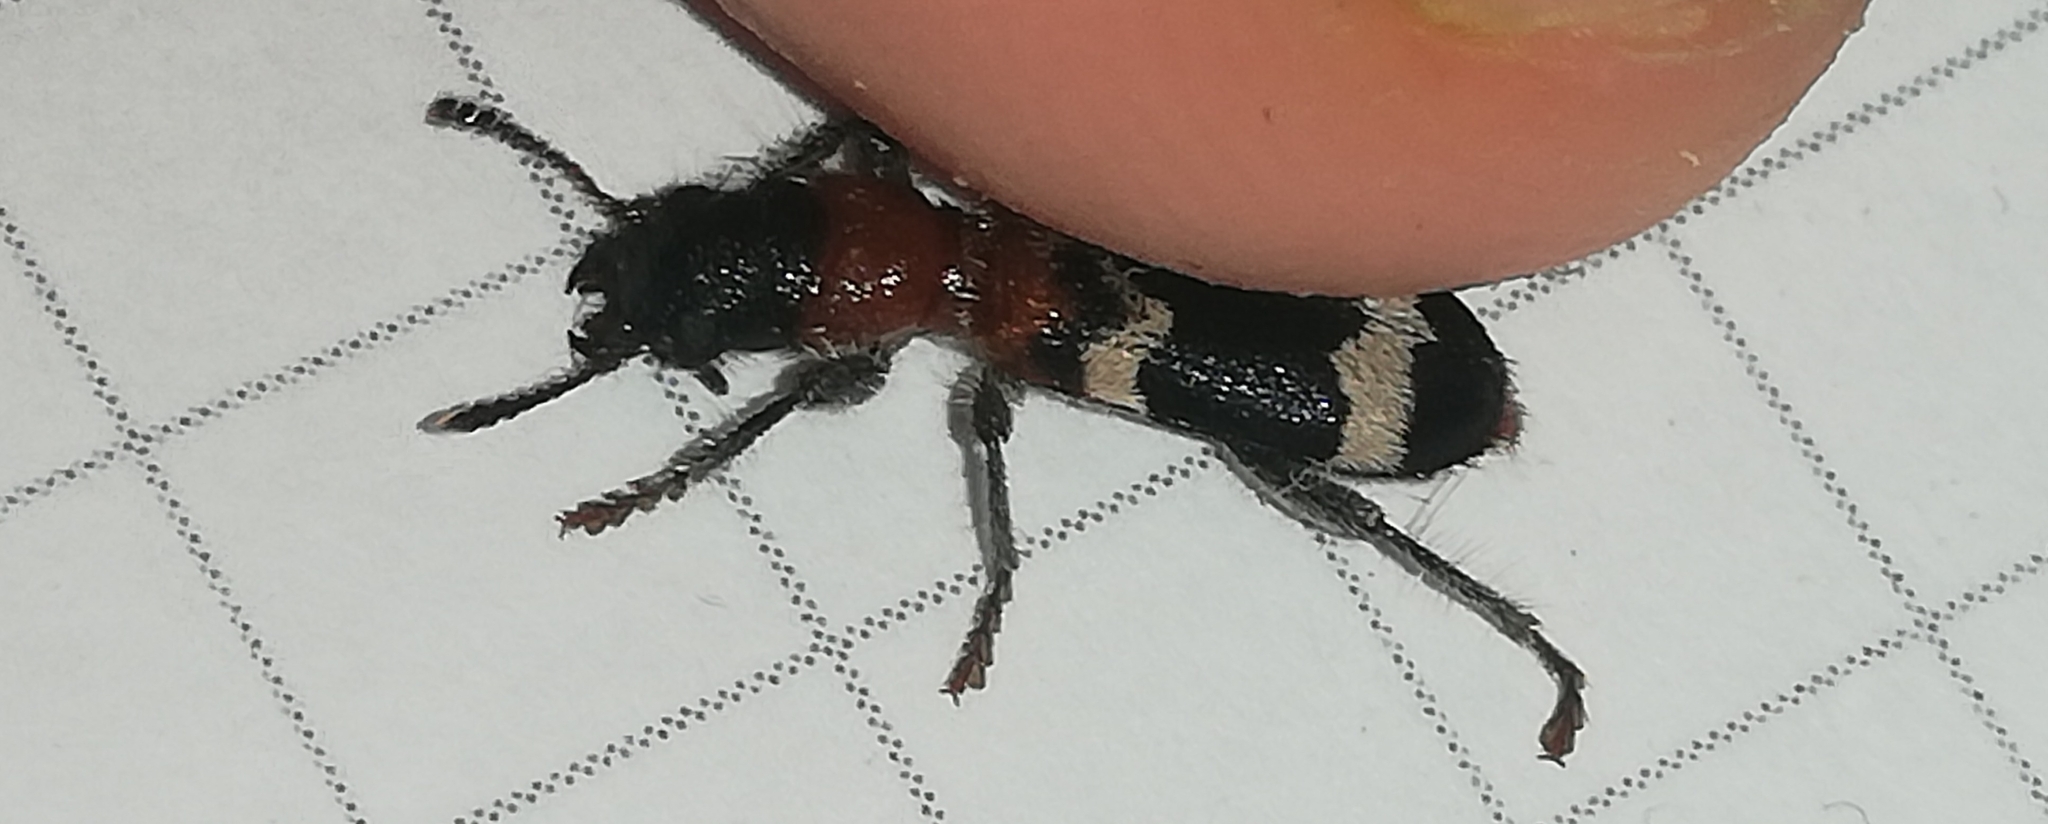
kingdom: Animalia
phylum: Arthropoda
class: Insecta
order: Coleoptera
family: Cleridae
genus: Thanasimus
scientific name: Thanasimus formicarius
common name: Ant beetle
